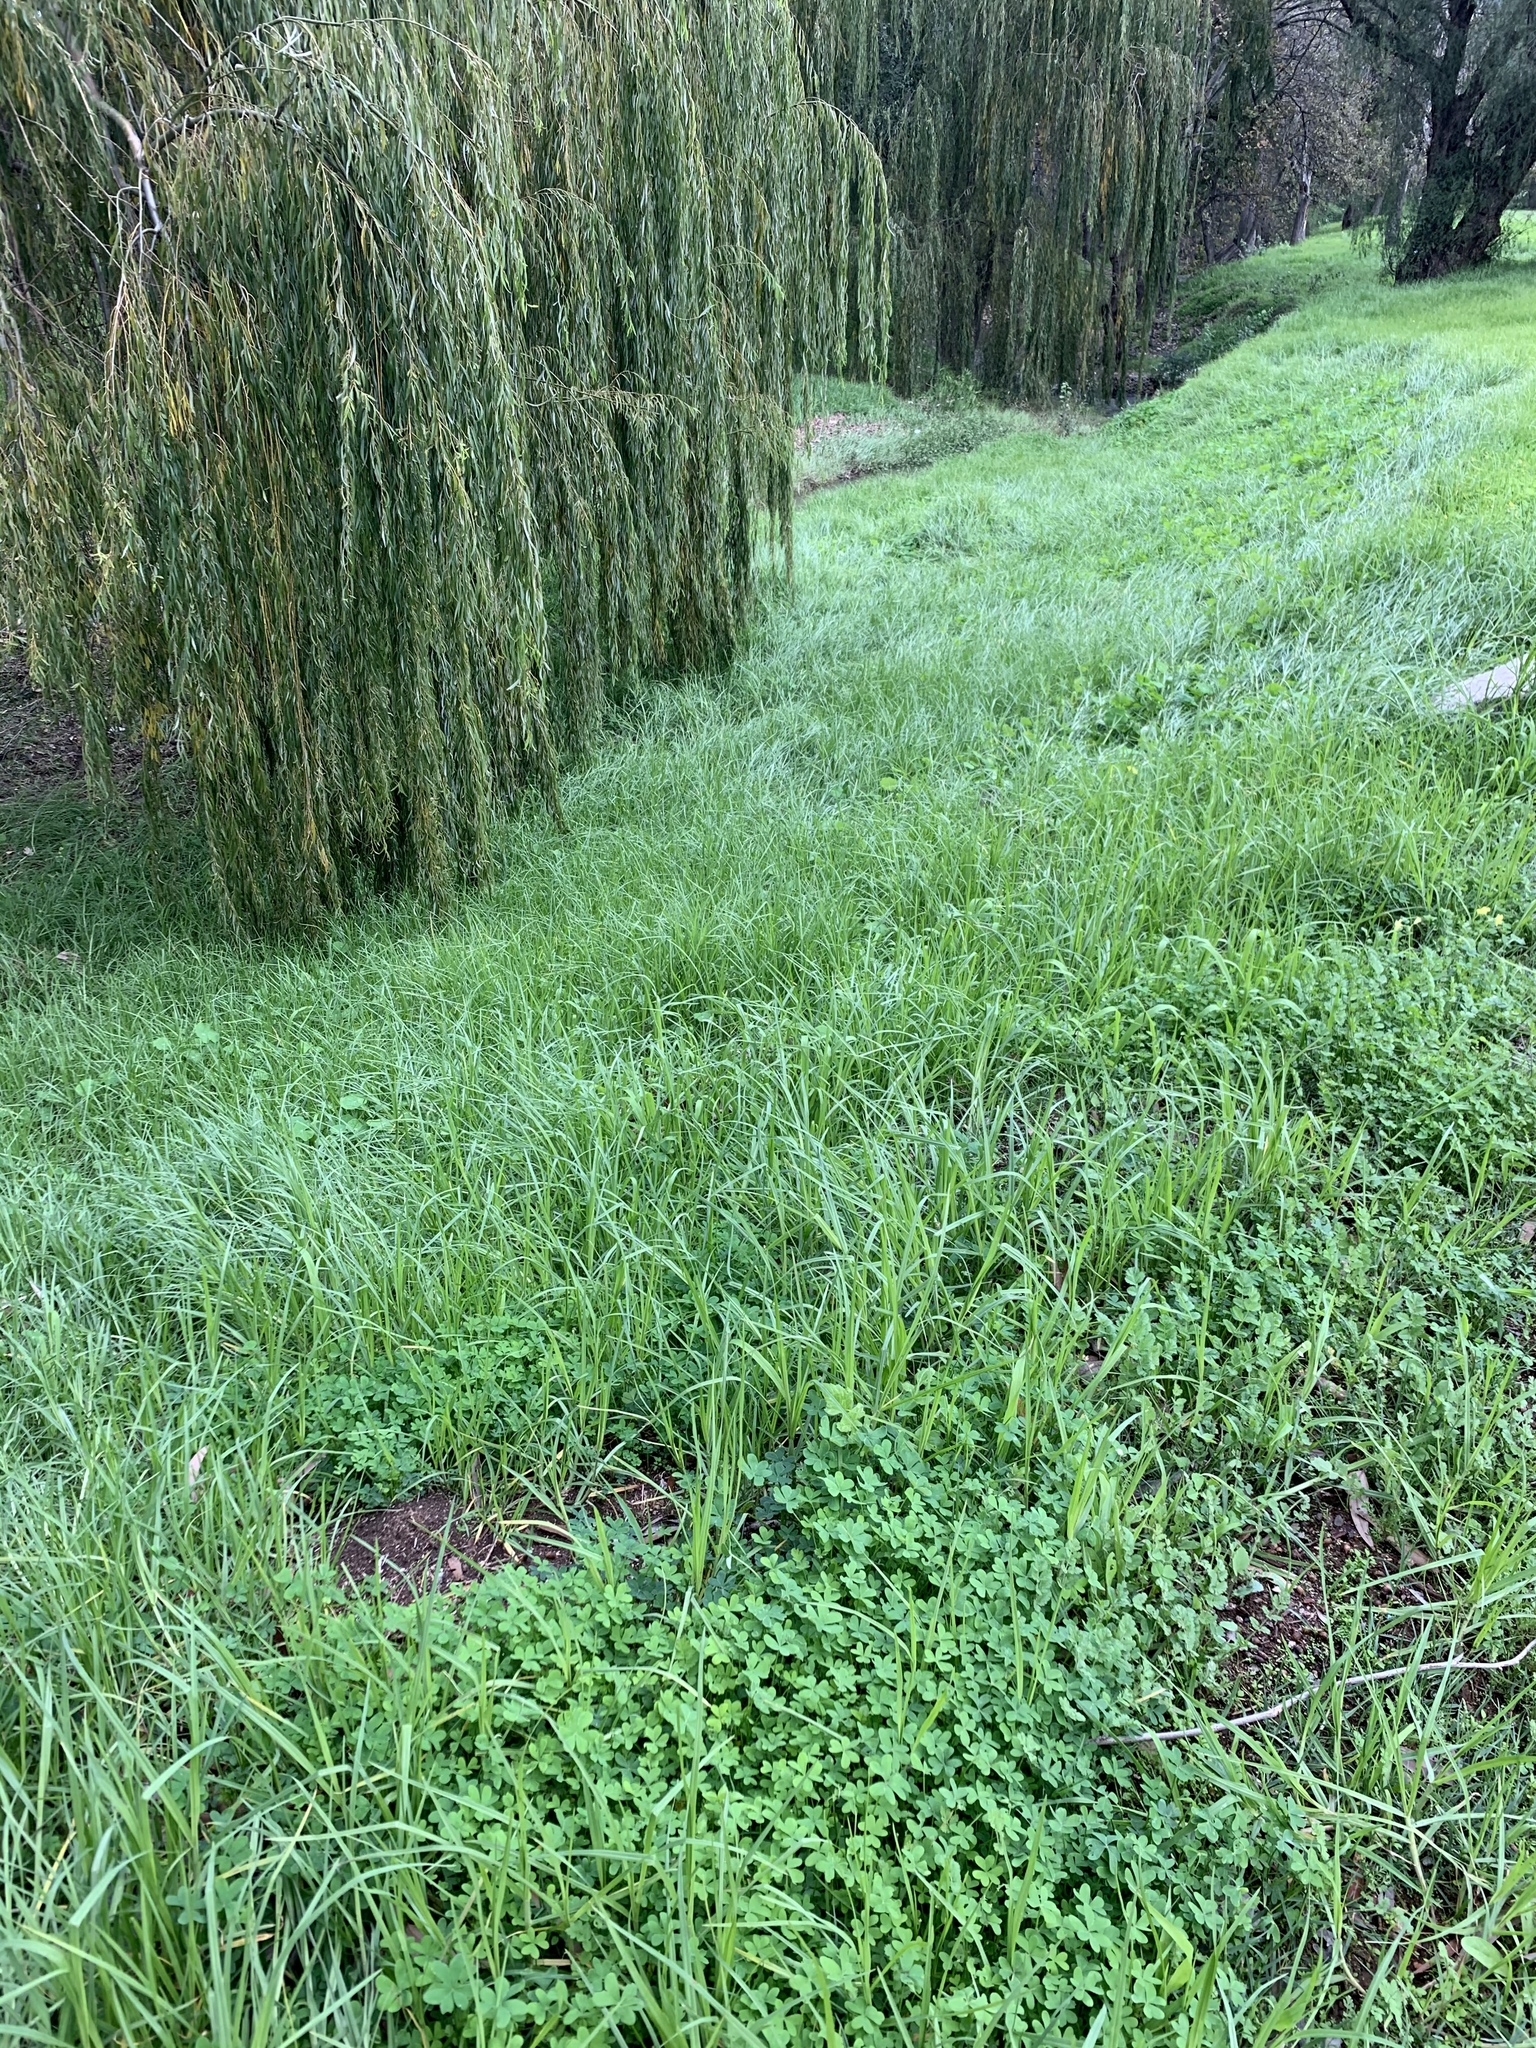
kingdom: Plantae
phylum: Tracheophyta
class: Liliopsida
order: Poales
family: Poaceae
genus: Cenchrus
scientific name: Cenchrus clandestinus
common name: Kikuyugrass
